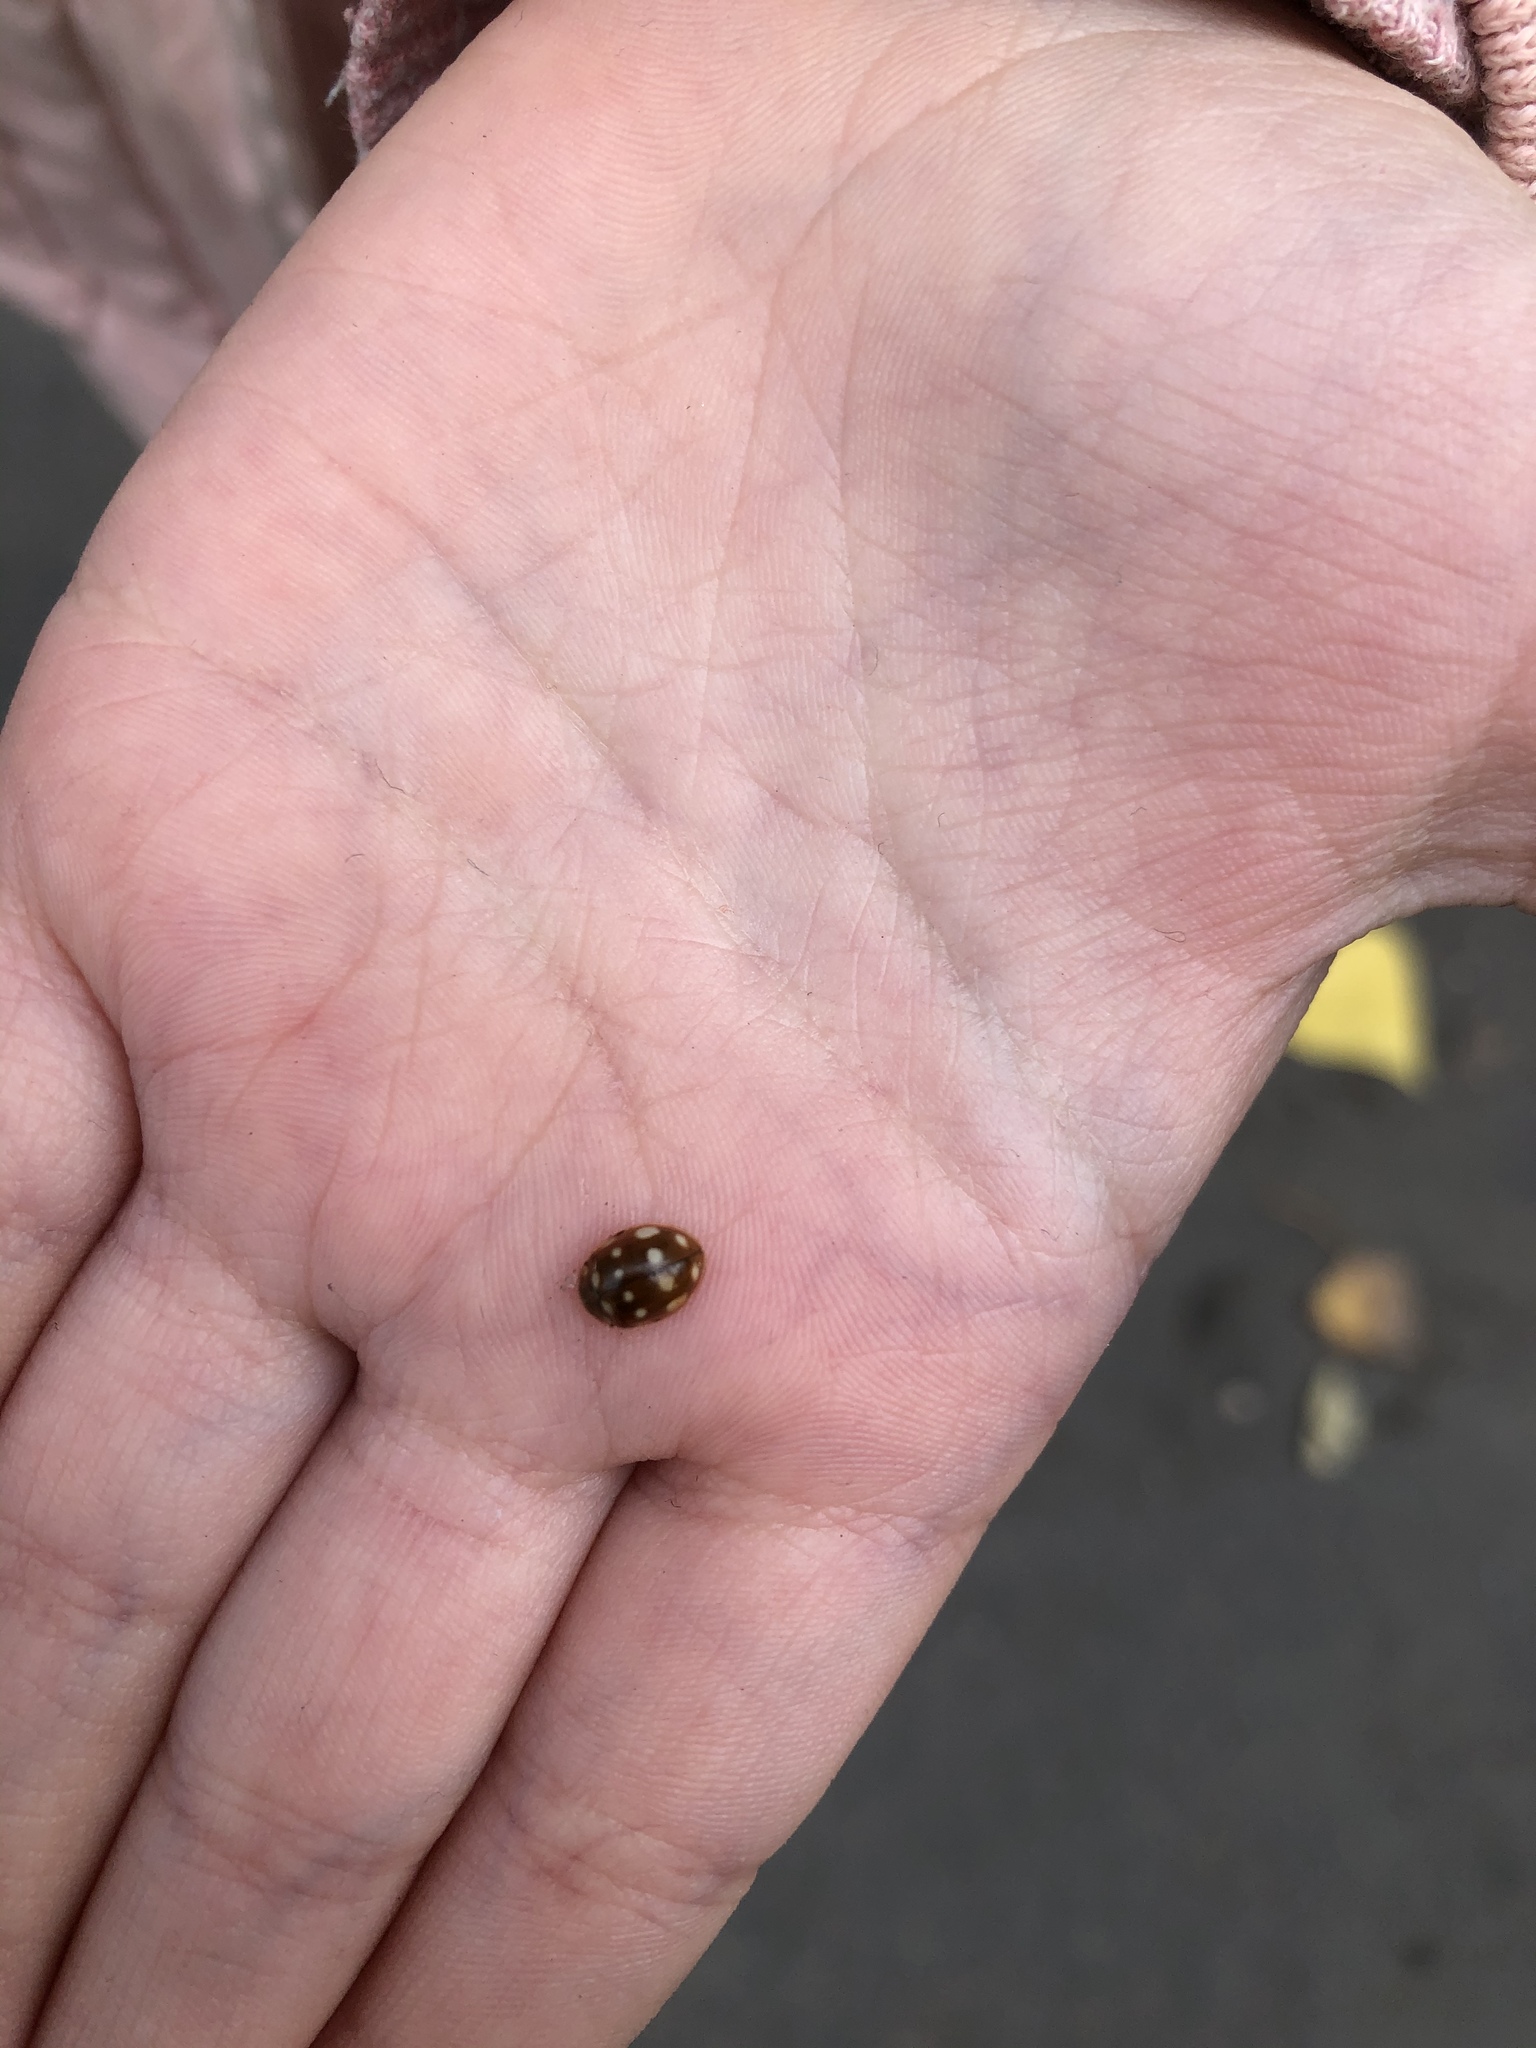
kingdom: Animalia
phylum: Arthropoda
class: Insecta
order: Coleoptera
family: Coccinellidae
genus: Calvia
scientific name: Calvia quatuordecimguttata
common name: Cream-spot ladybird
